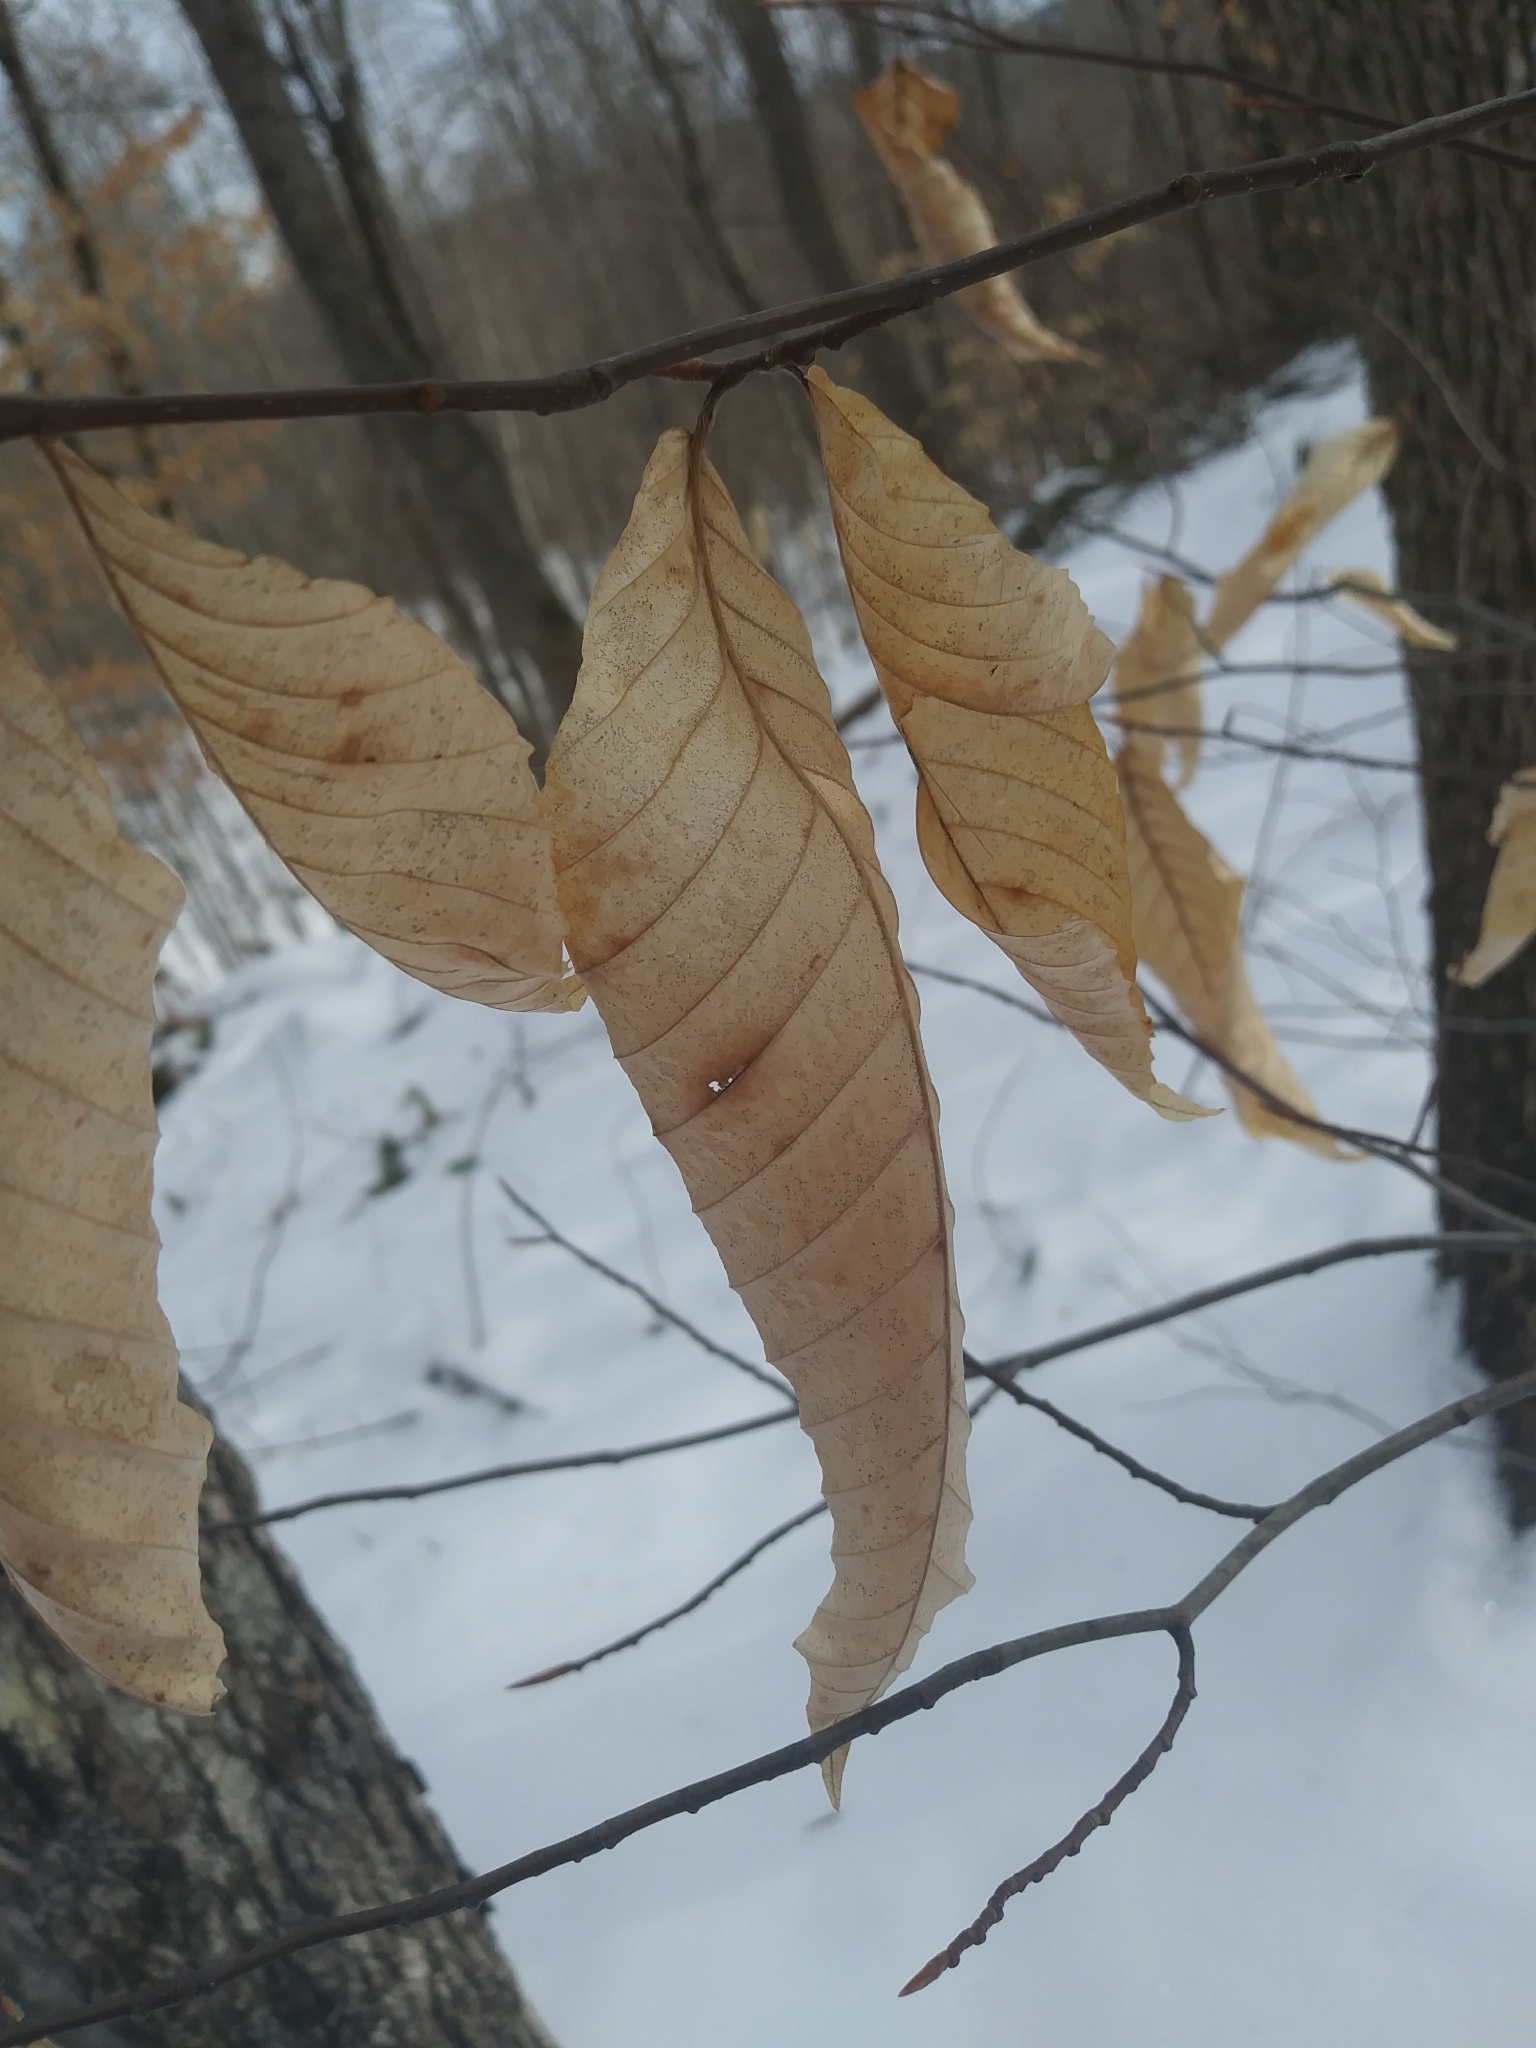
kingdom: Plantae
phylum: Tracheophyta
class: Magnoliopsida
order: Fagales
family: Fagaceae
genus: Fagus
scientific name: Fagus grandifolia
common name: American beech
